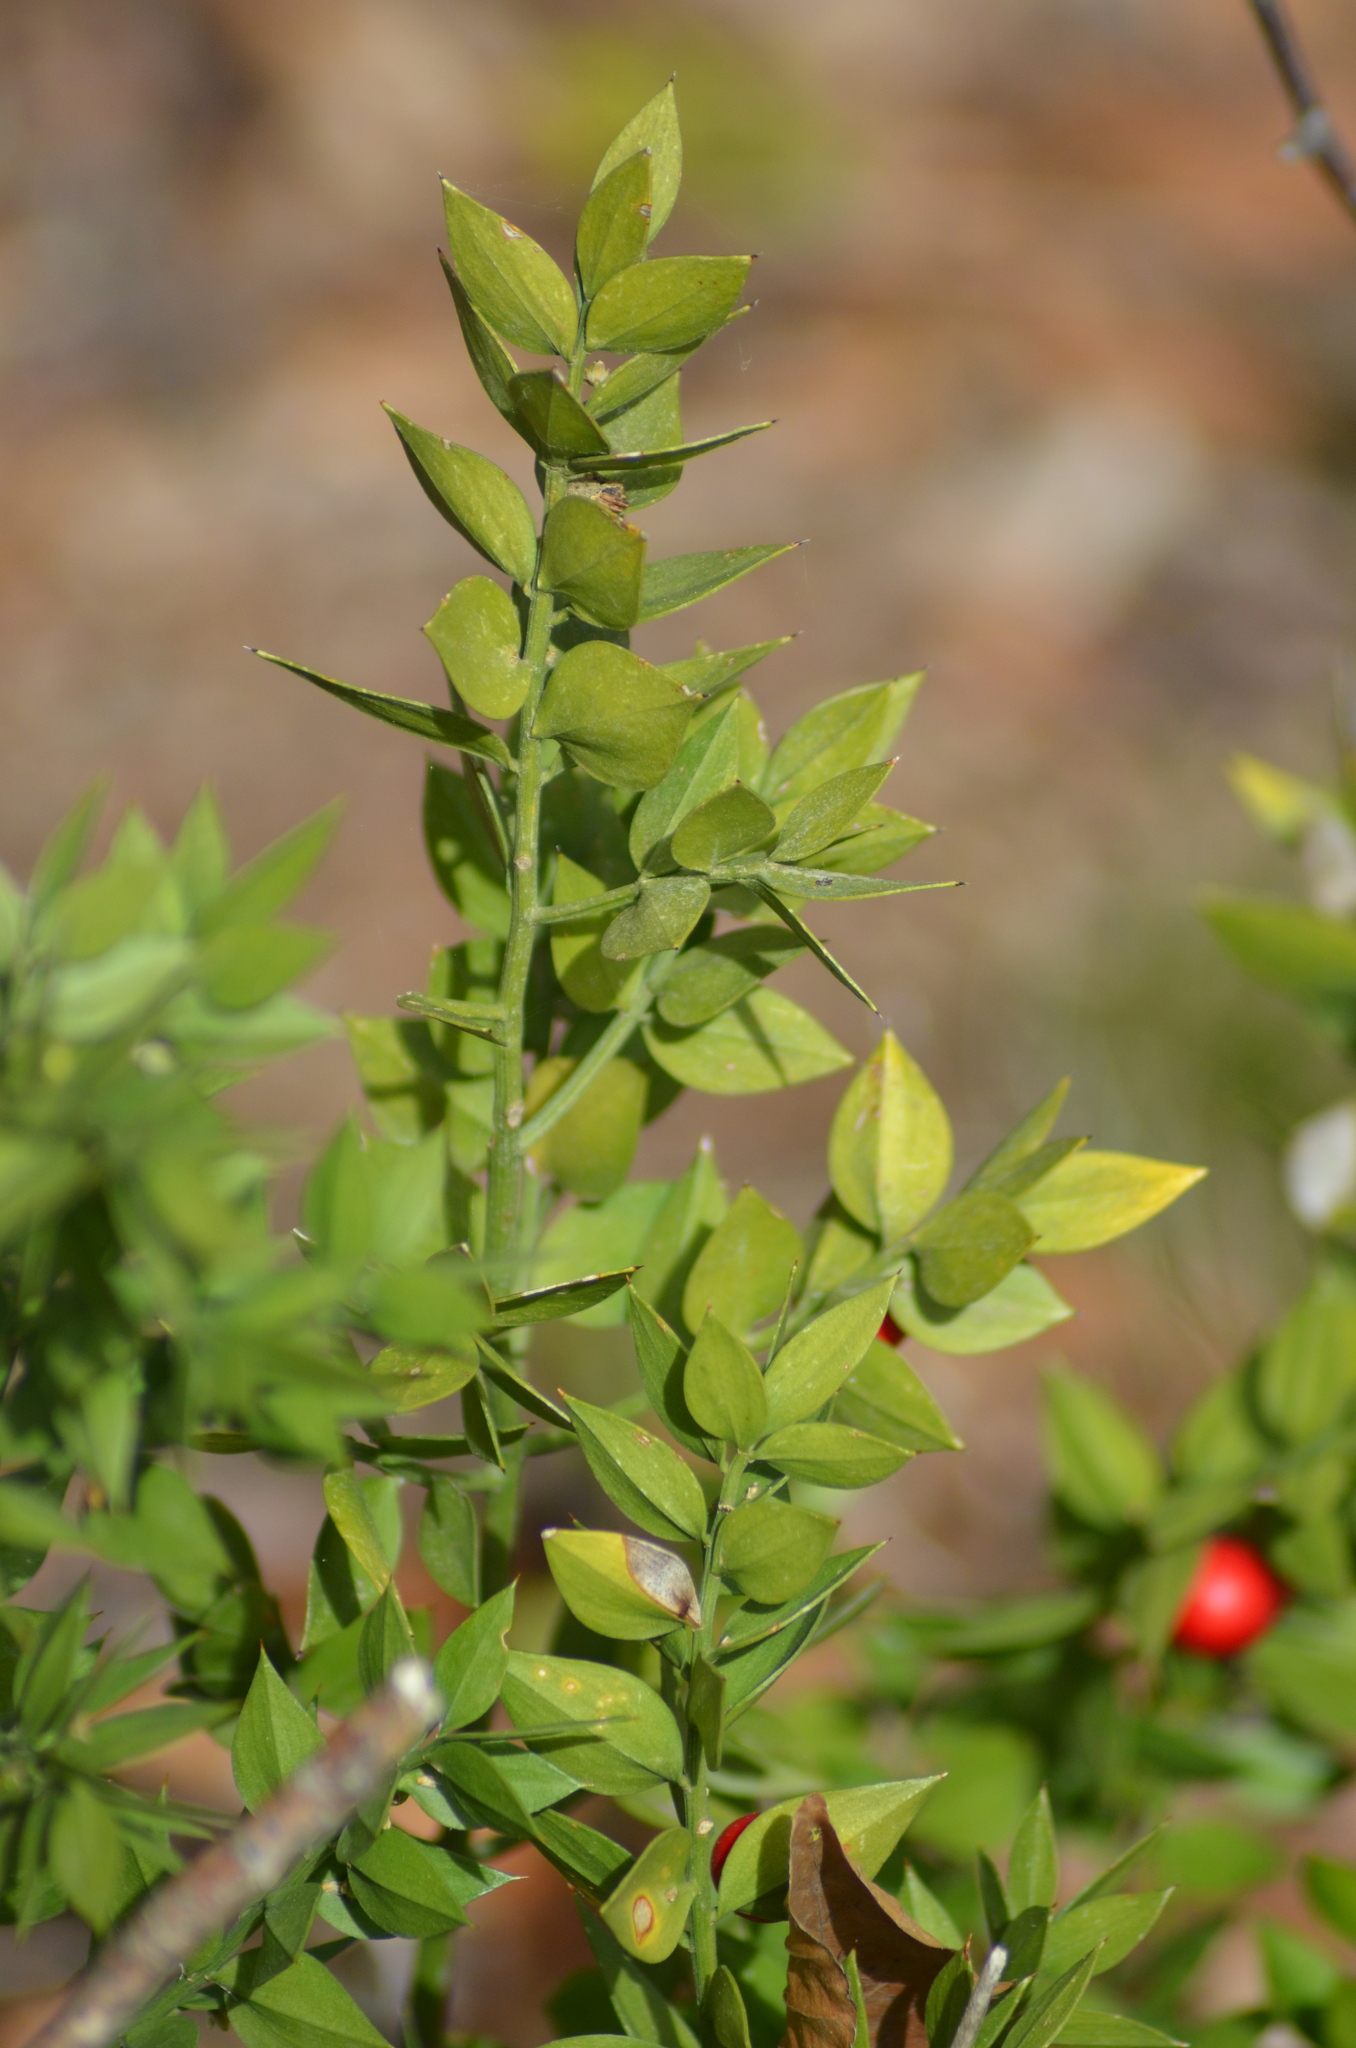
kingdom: Plantae
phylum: Tracheophyta
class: Liliopsida
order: Asparagales
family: Asparagaceae
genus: Ruscus
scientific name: Ruscus aculeatus
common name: Butcher's-broom
